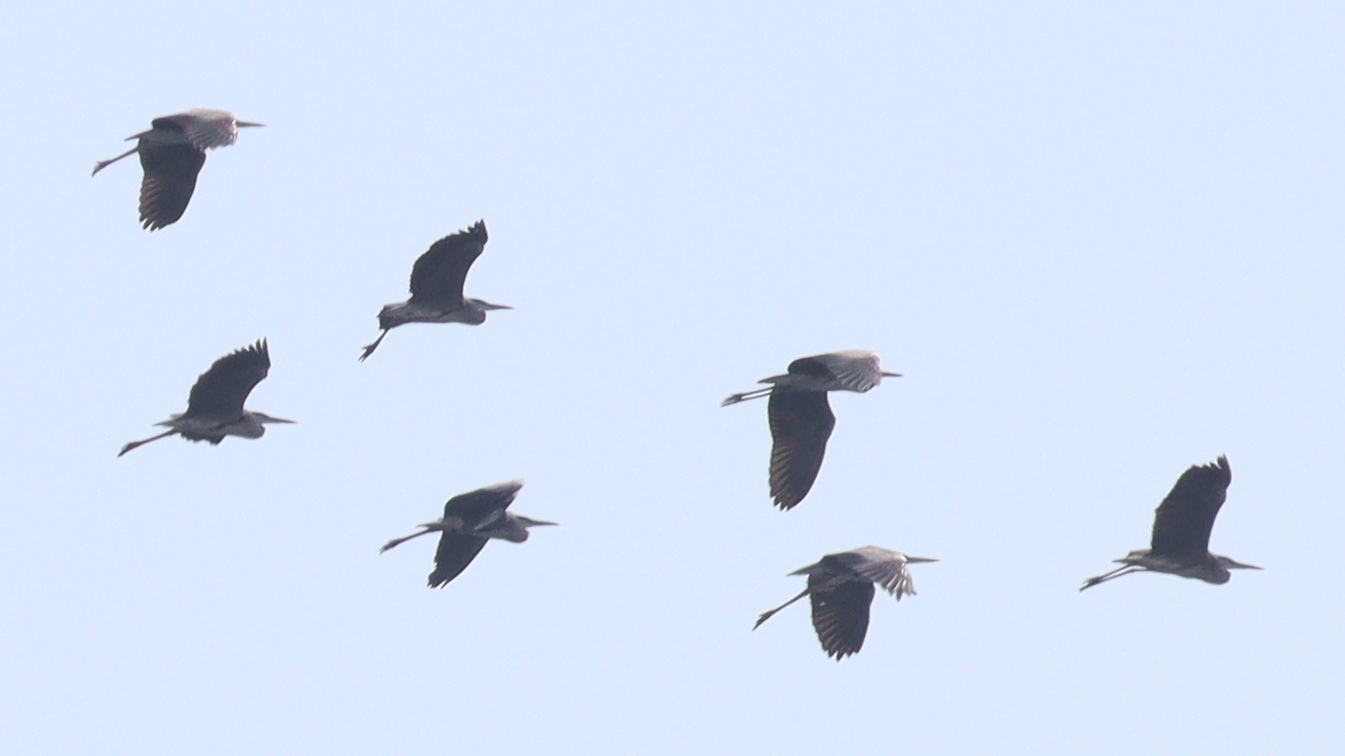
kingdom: Animalia
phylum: Chordata
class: Aves
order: Pelecaniformes
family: Ardeidae
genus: Ardea
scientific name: Ardea cinerea
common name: Grey heron
